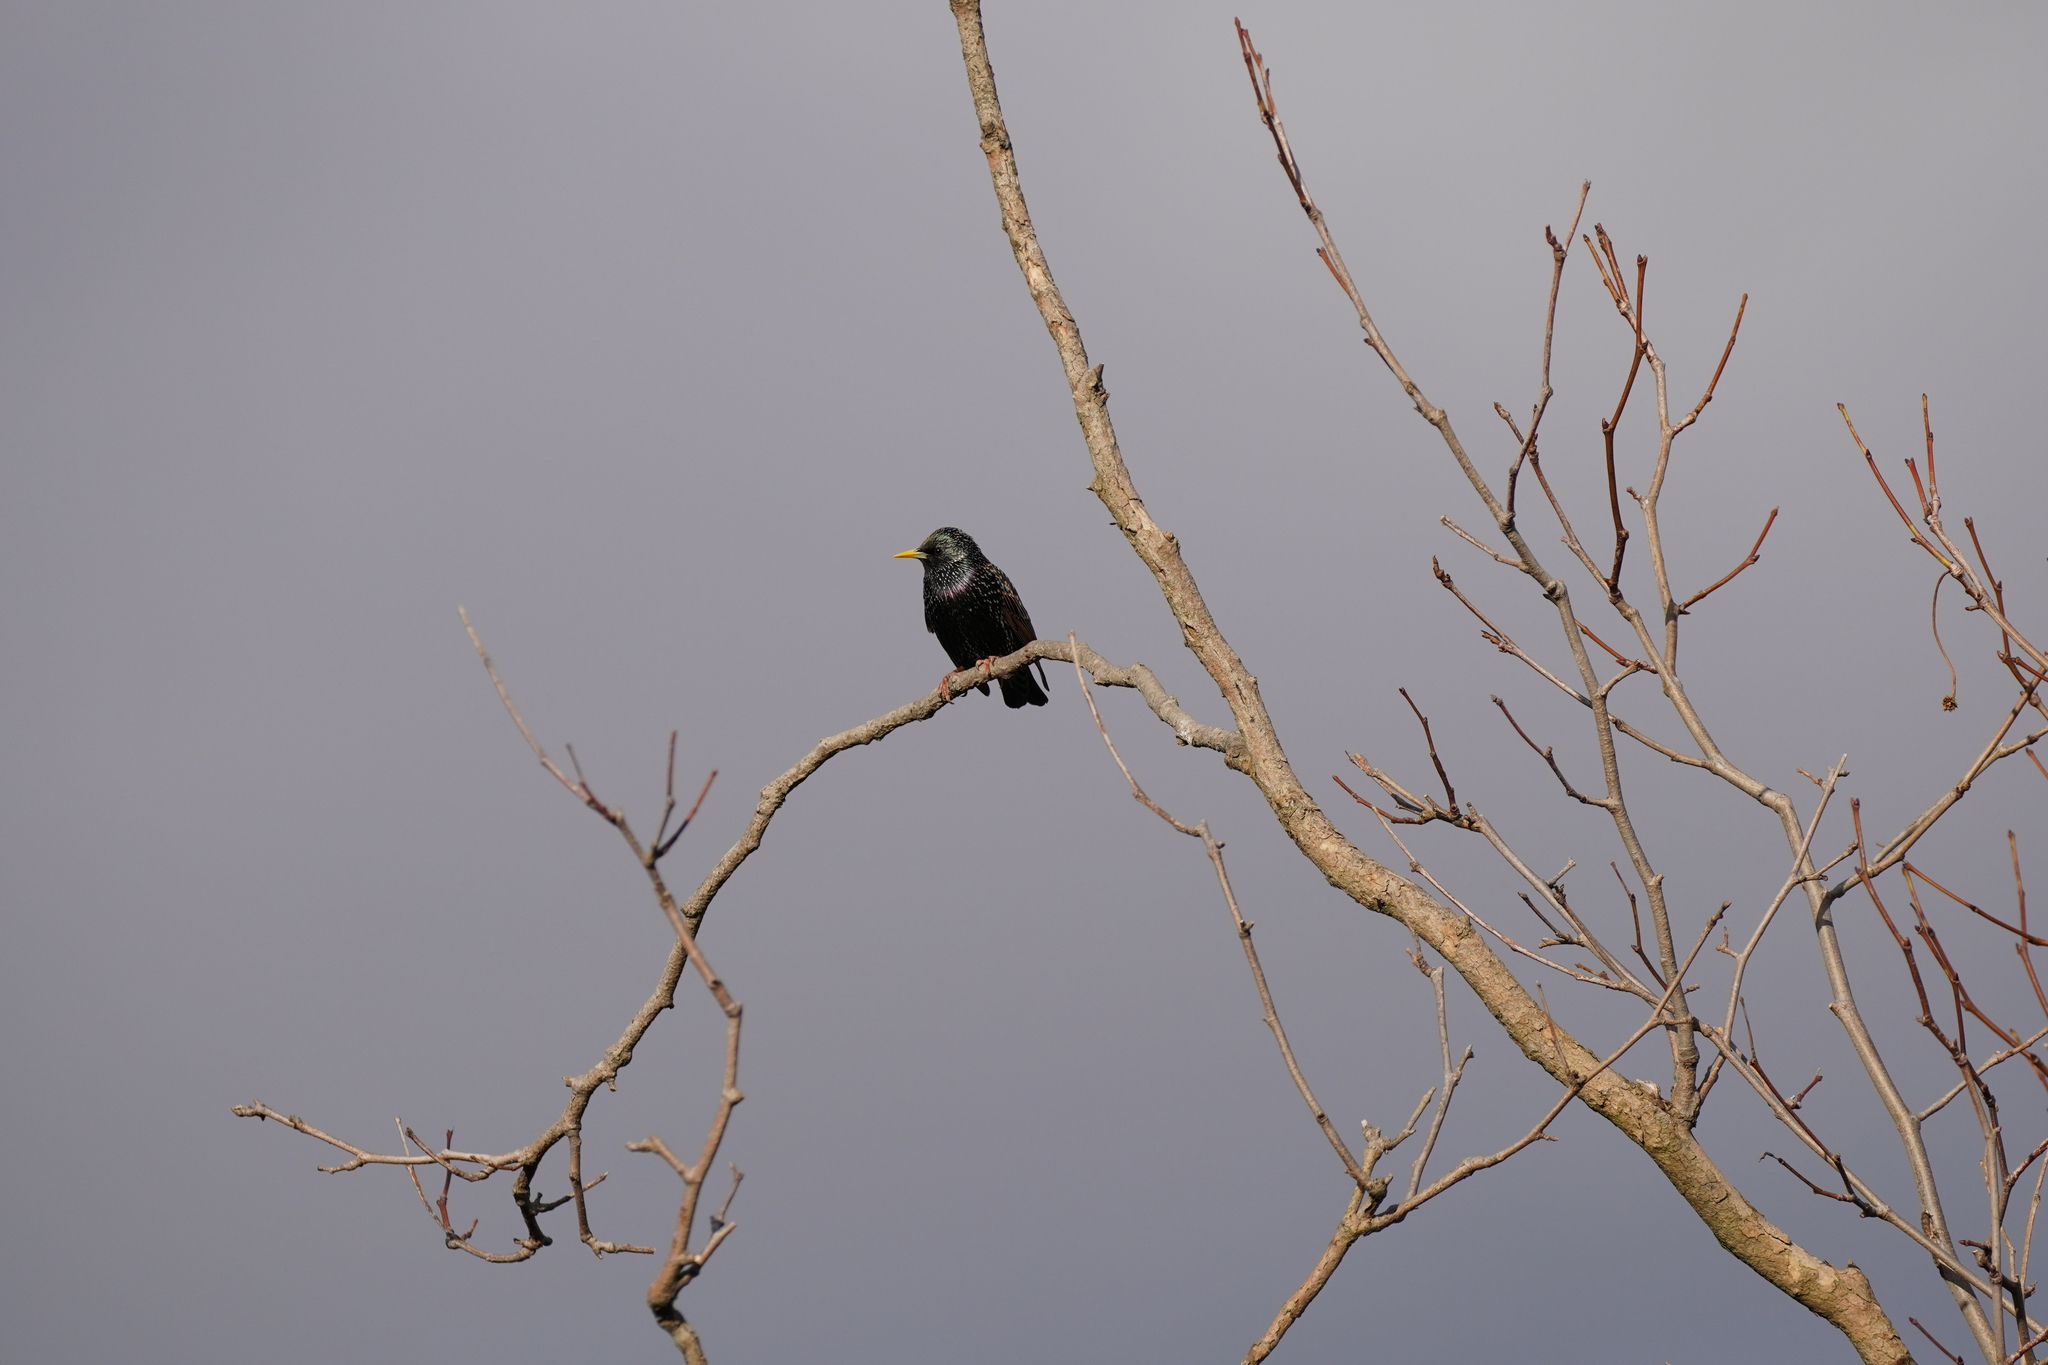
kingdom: Animalia
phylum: Chordata
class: Aves
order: Passeriformes
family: Sturnidae
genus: Sturnus
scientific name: Sturnus vulgaris
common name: Common starling
